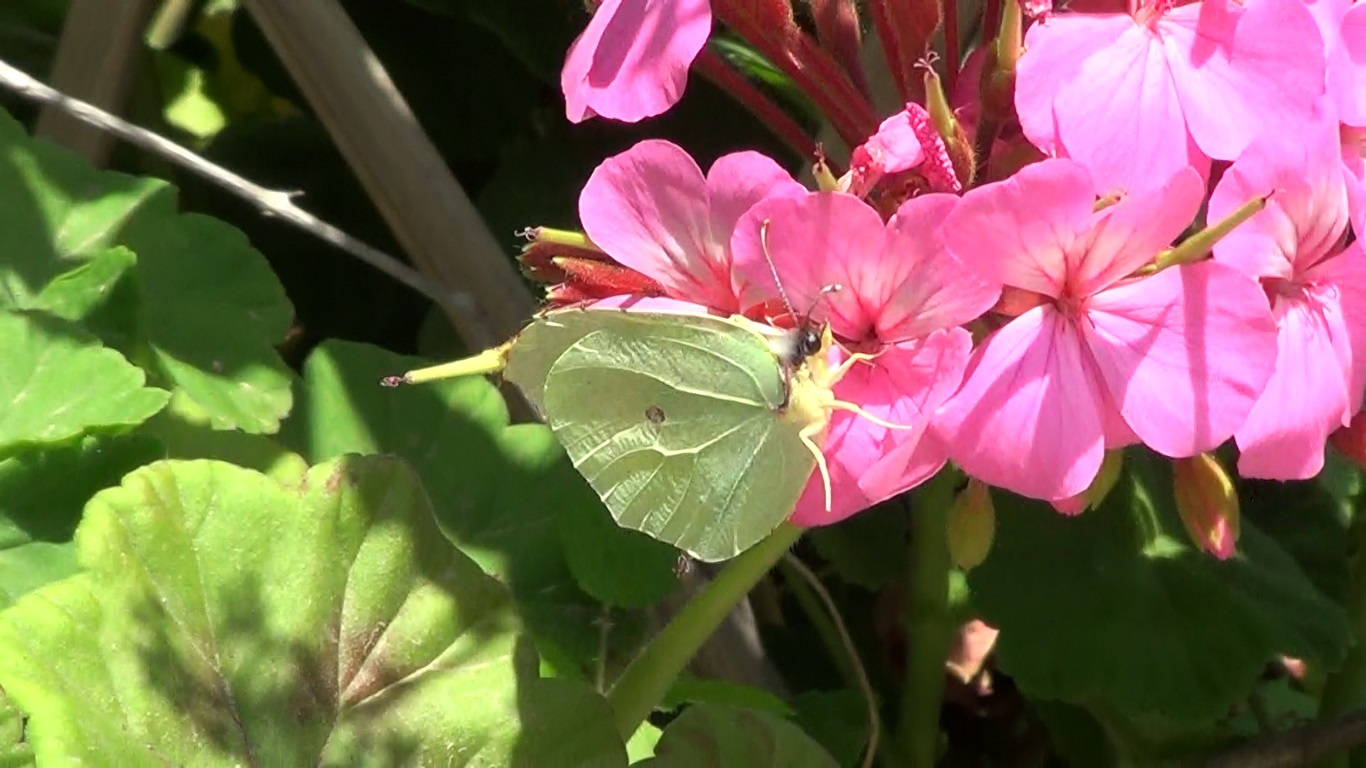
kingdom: Animalia
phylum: Arthropoda
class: Insecta
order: Lepidoptera
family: Pieridae
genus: Gonepteryx
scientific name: Gonepteryx cleopatra
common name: Cleopatra
